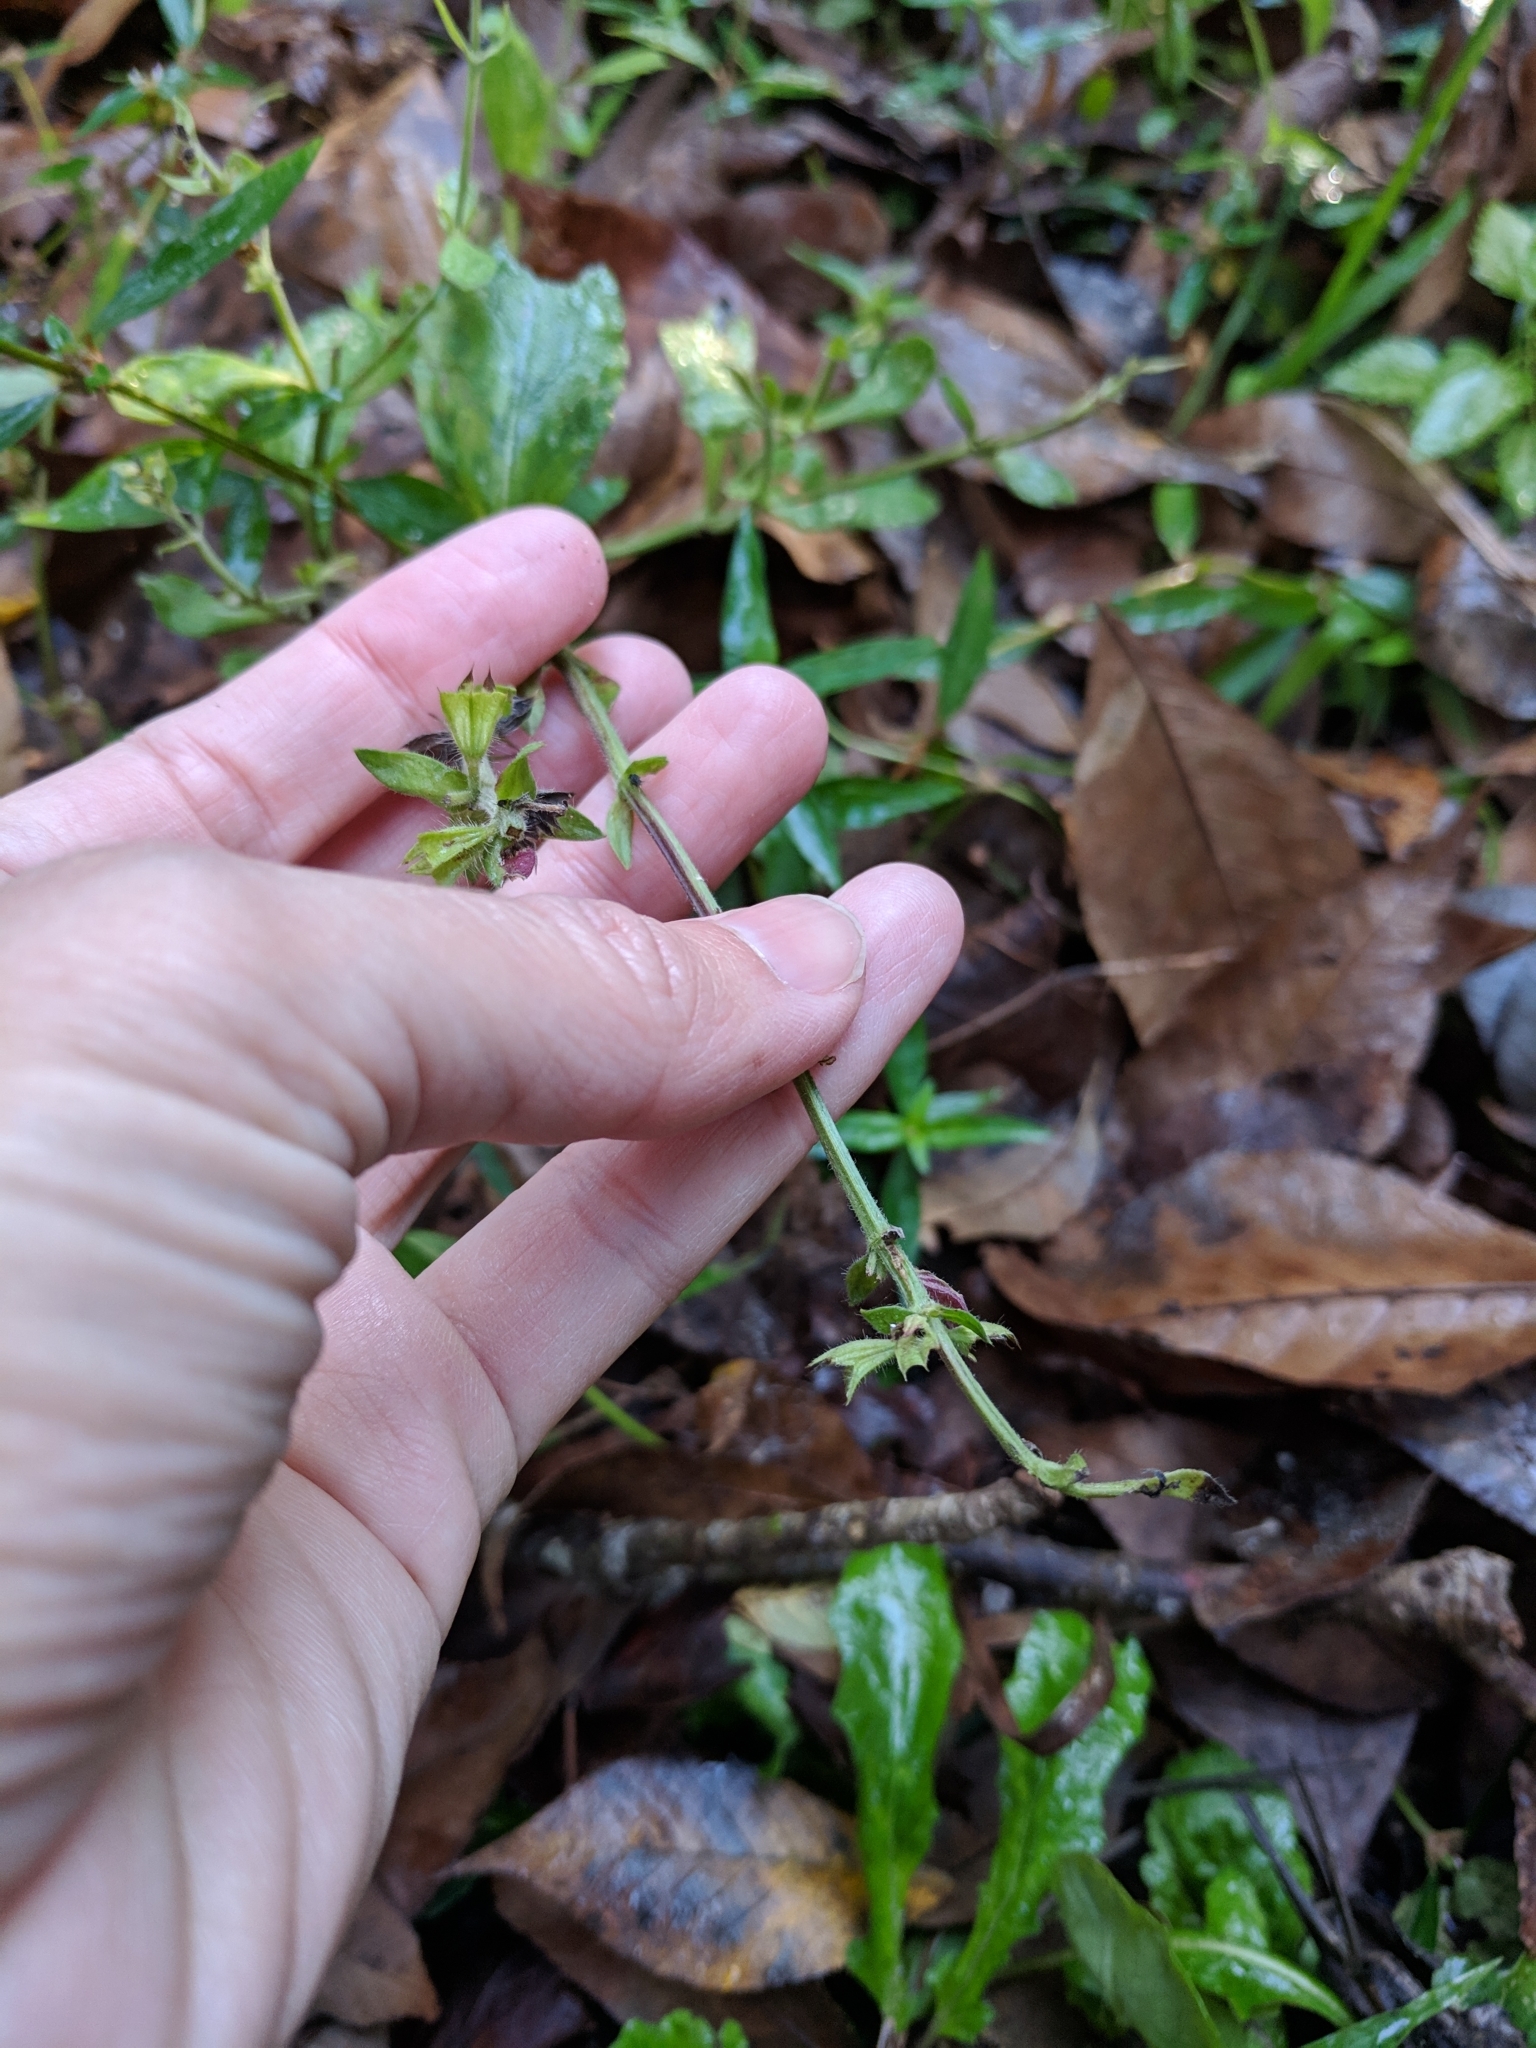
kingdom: Plantae
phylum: Tracheophyta
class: Magnoliopsida
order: Lamiales
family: Lamiaceae
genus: Salvia
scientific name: Salvia lyrata
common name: Cancerweed
